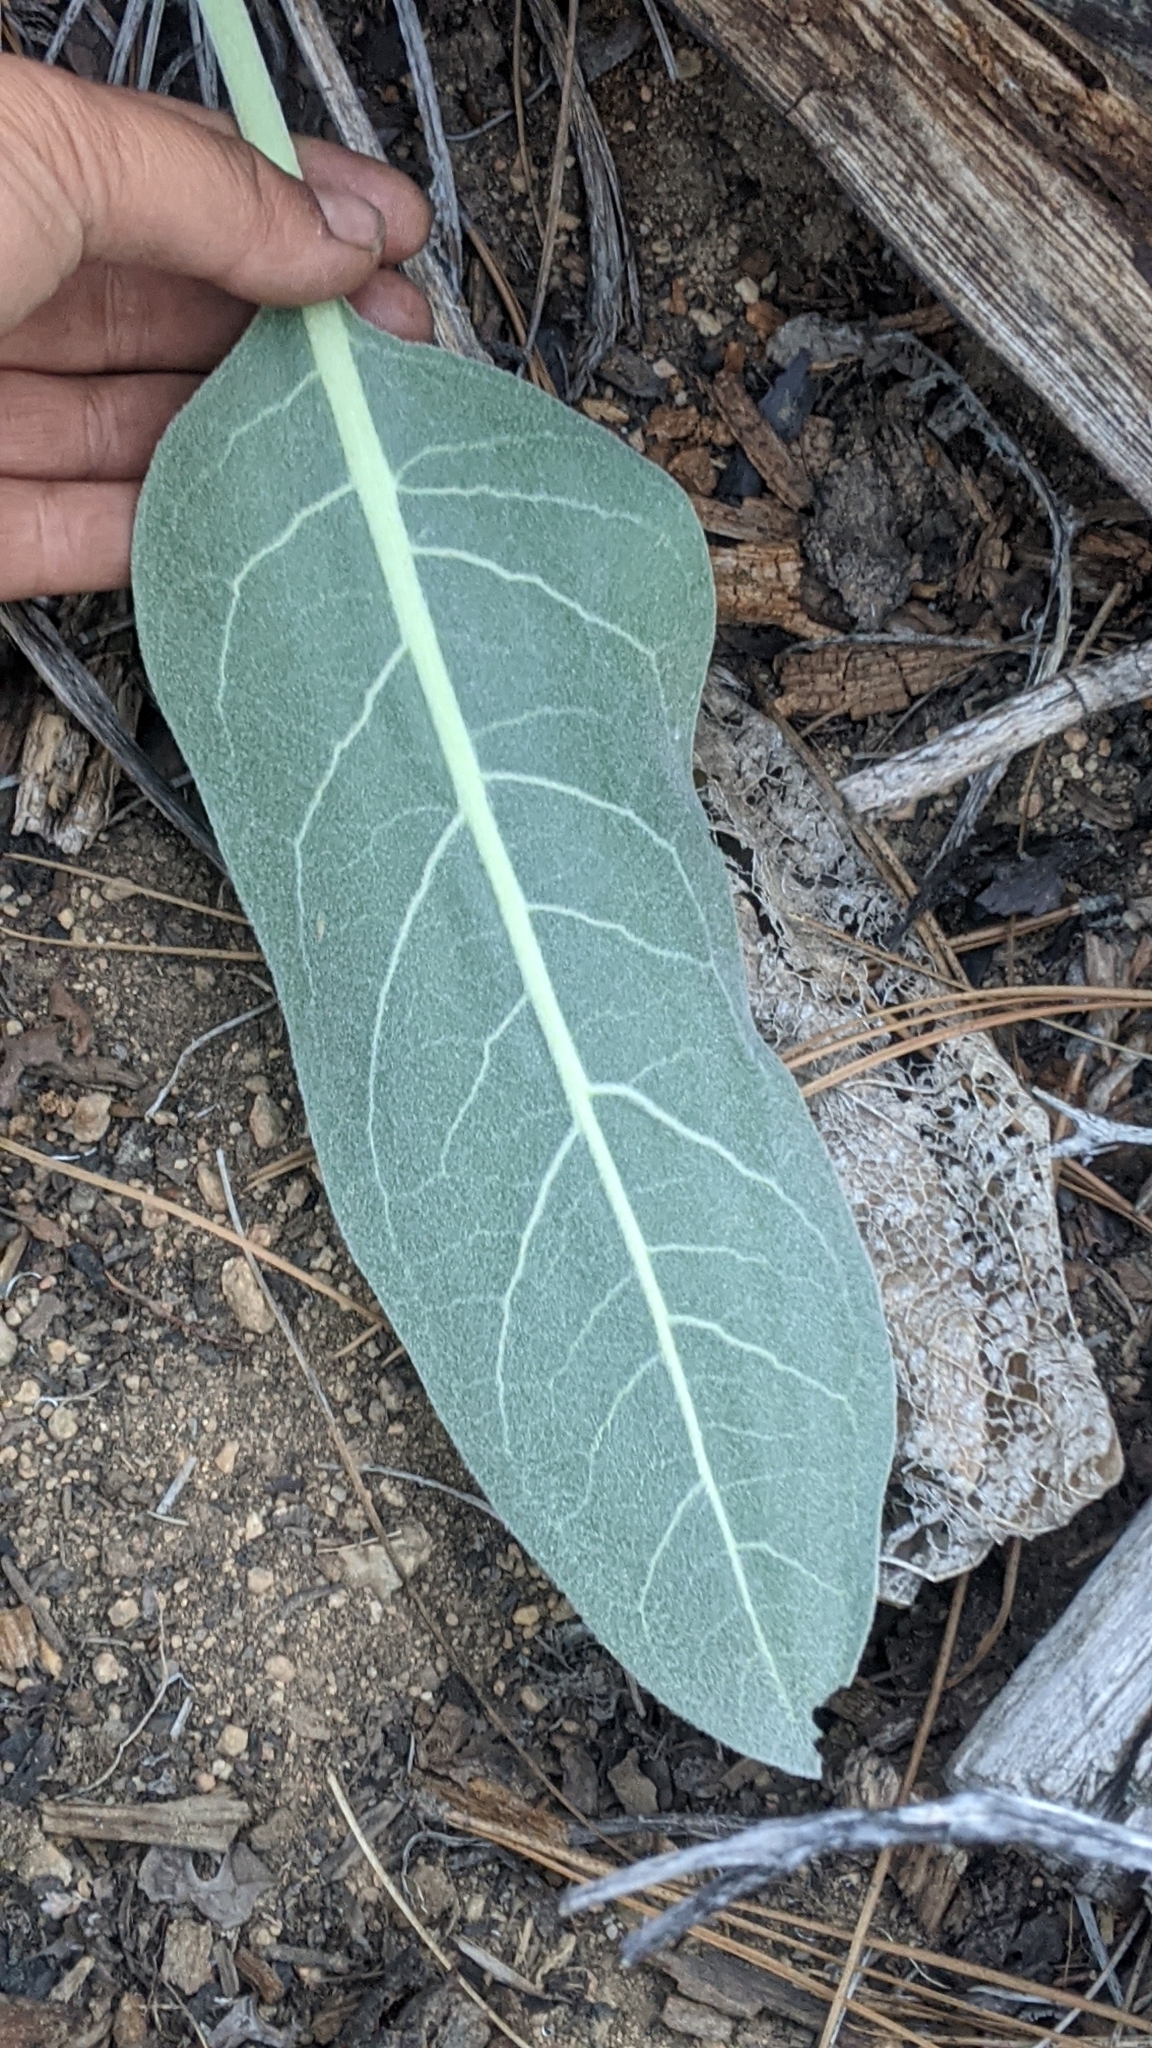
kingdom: Plantae
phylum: Tracheophyta
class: Magnoliopsida
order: Asterales
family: Asteraceae
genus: Wyethia
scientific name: Wyethia mollis
